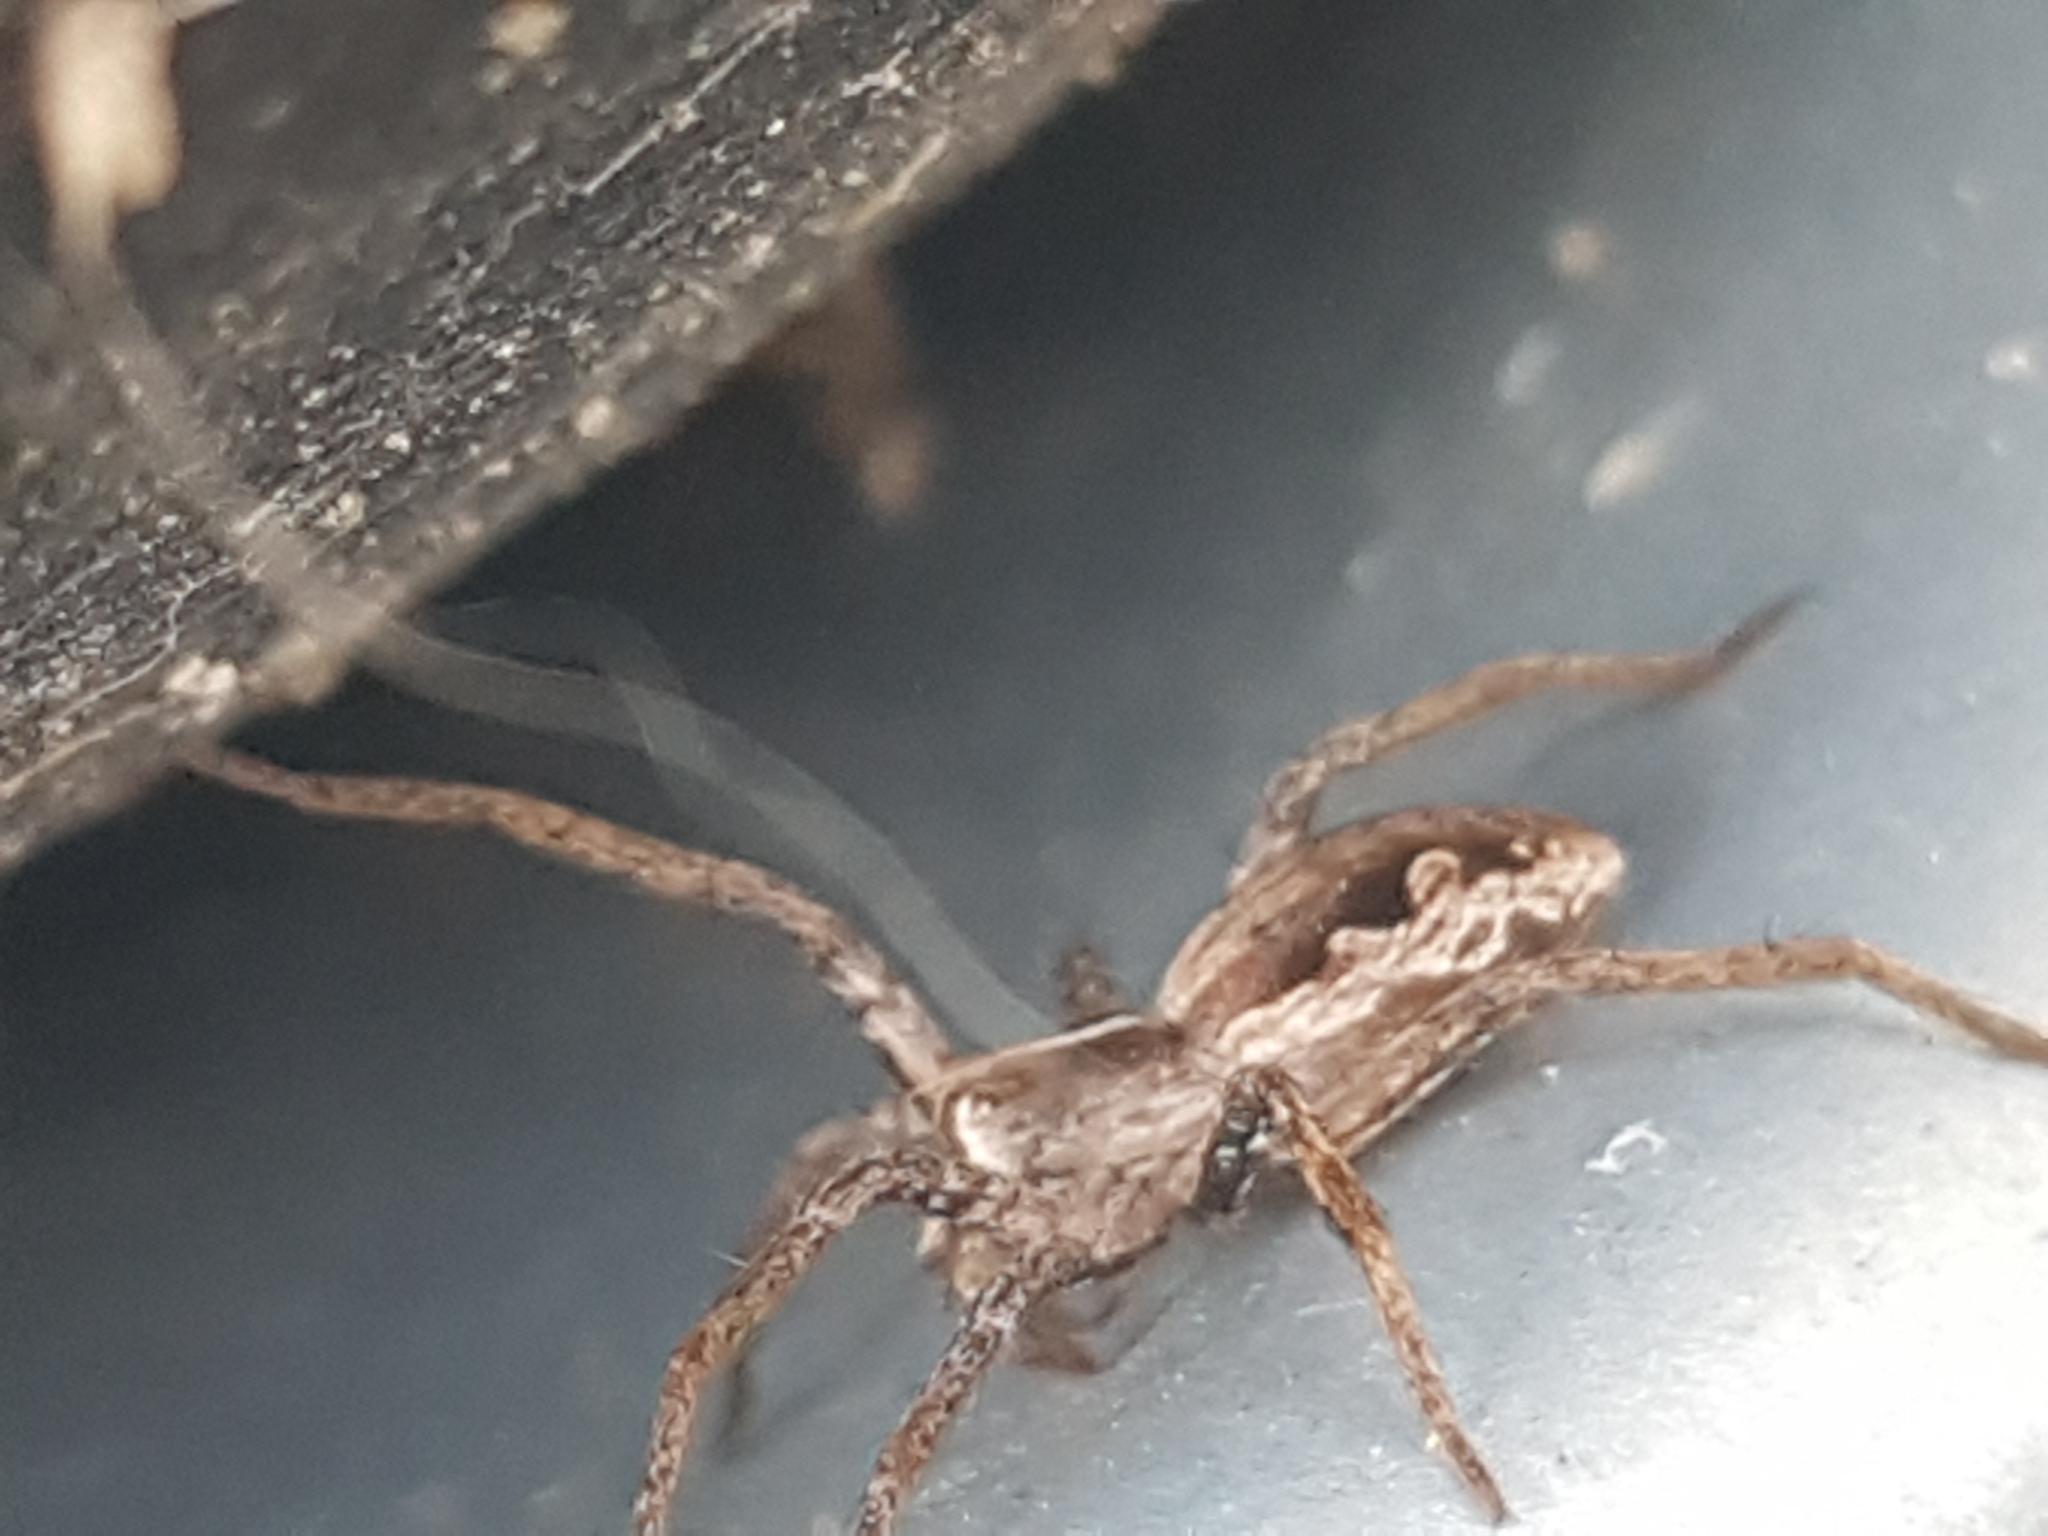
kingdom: Animalia
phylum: Arthropoda
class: Arachnida
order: Araneae
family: Pisauridae
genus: Pisaura
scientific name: Pisaura mirabilis
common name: Tent spider
